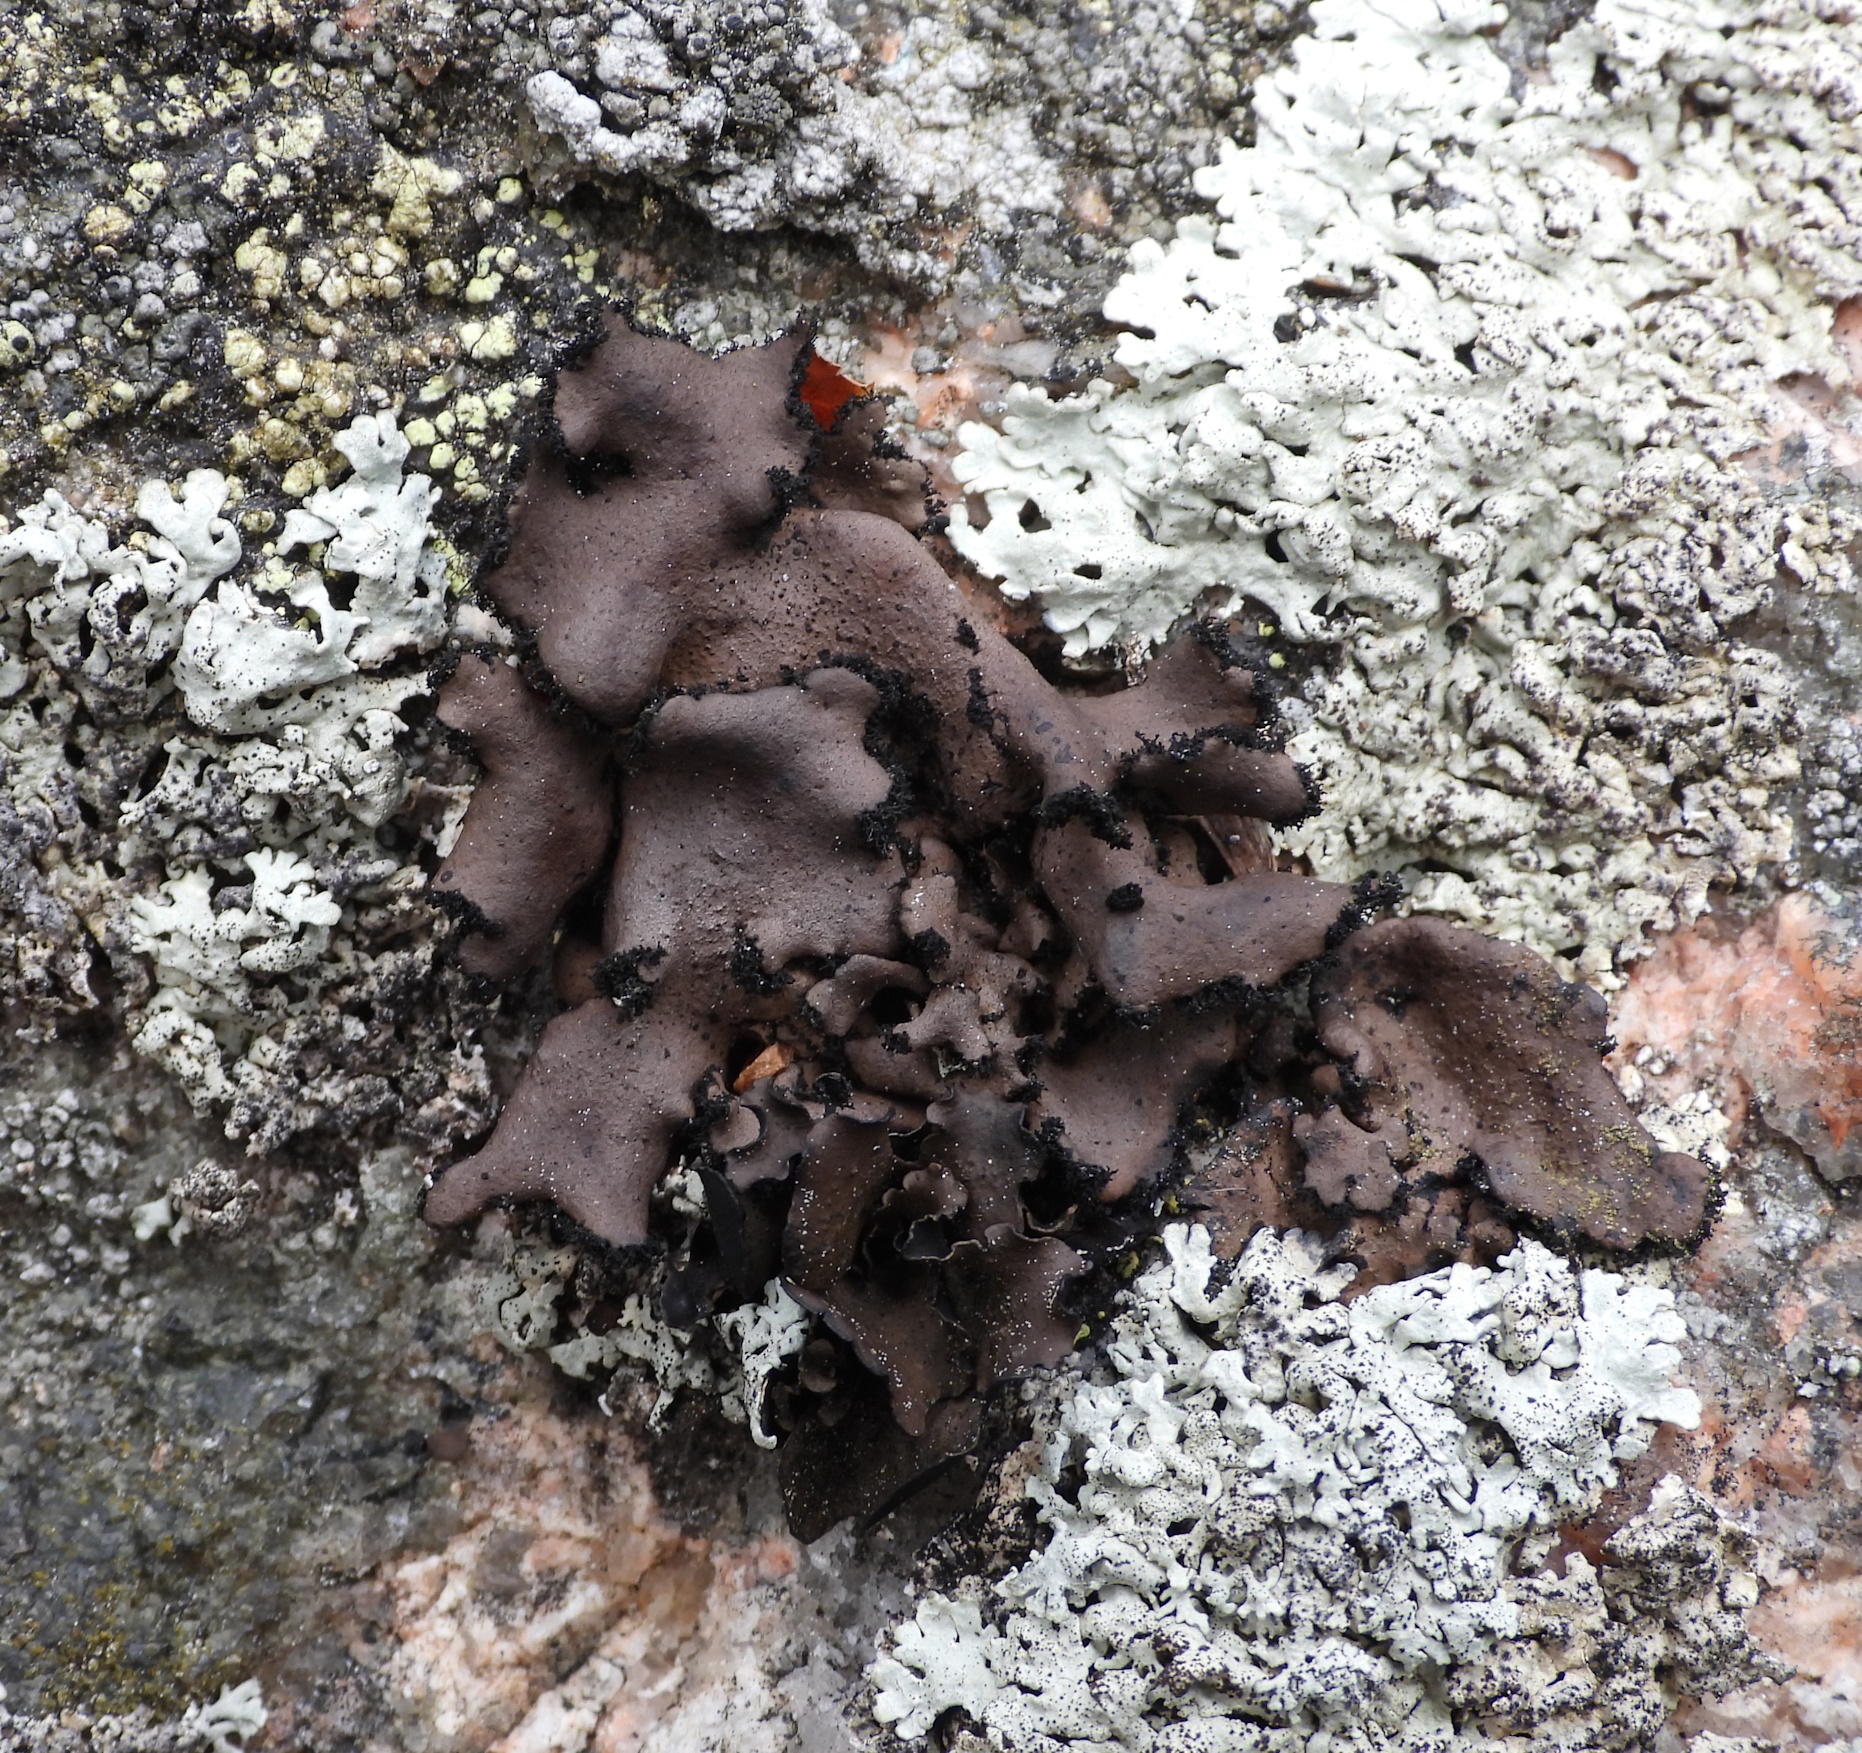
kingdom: Fungi
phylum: Ascomycota
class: Lecanoromycetes
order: Umbilicariales
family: Umbilicariaceae
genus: Umbilicaria
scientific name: Umbilicaria polyrrhiza
